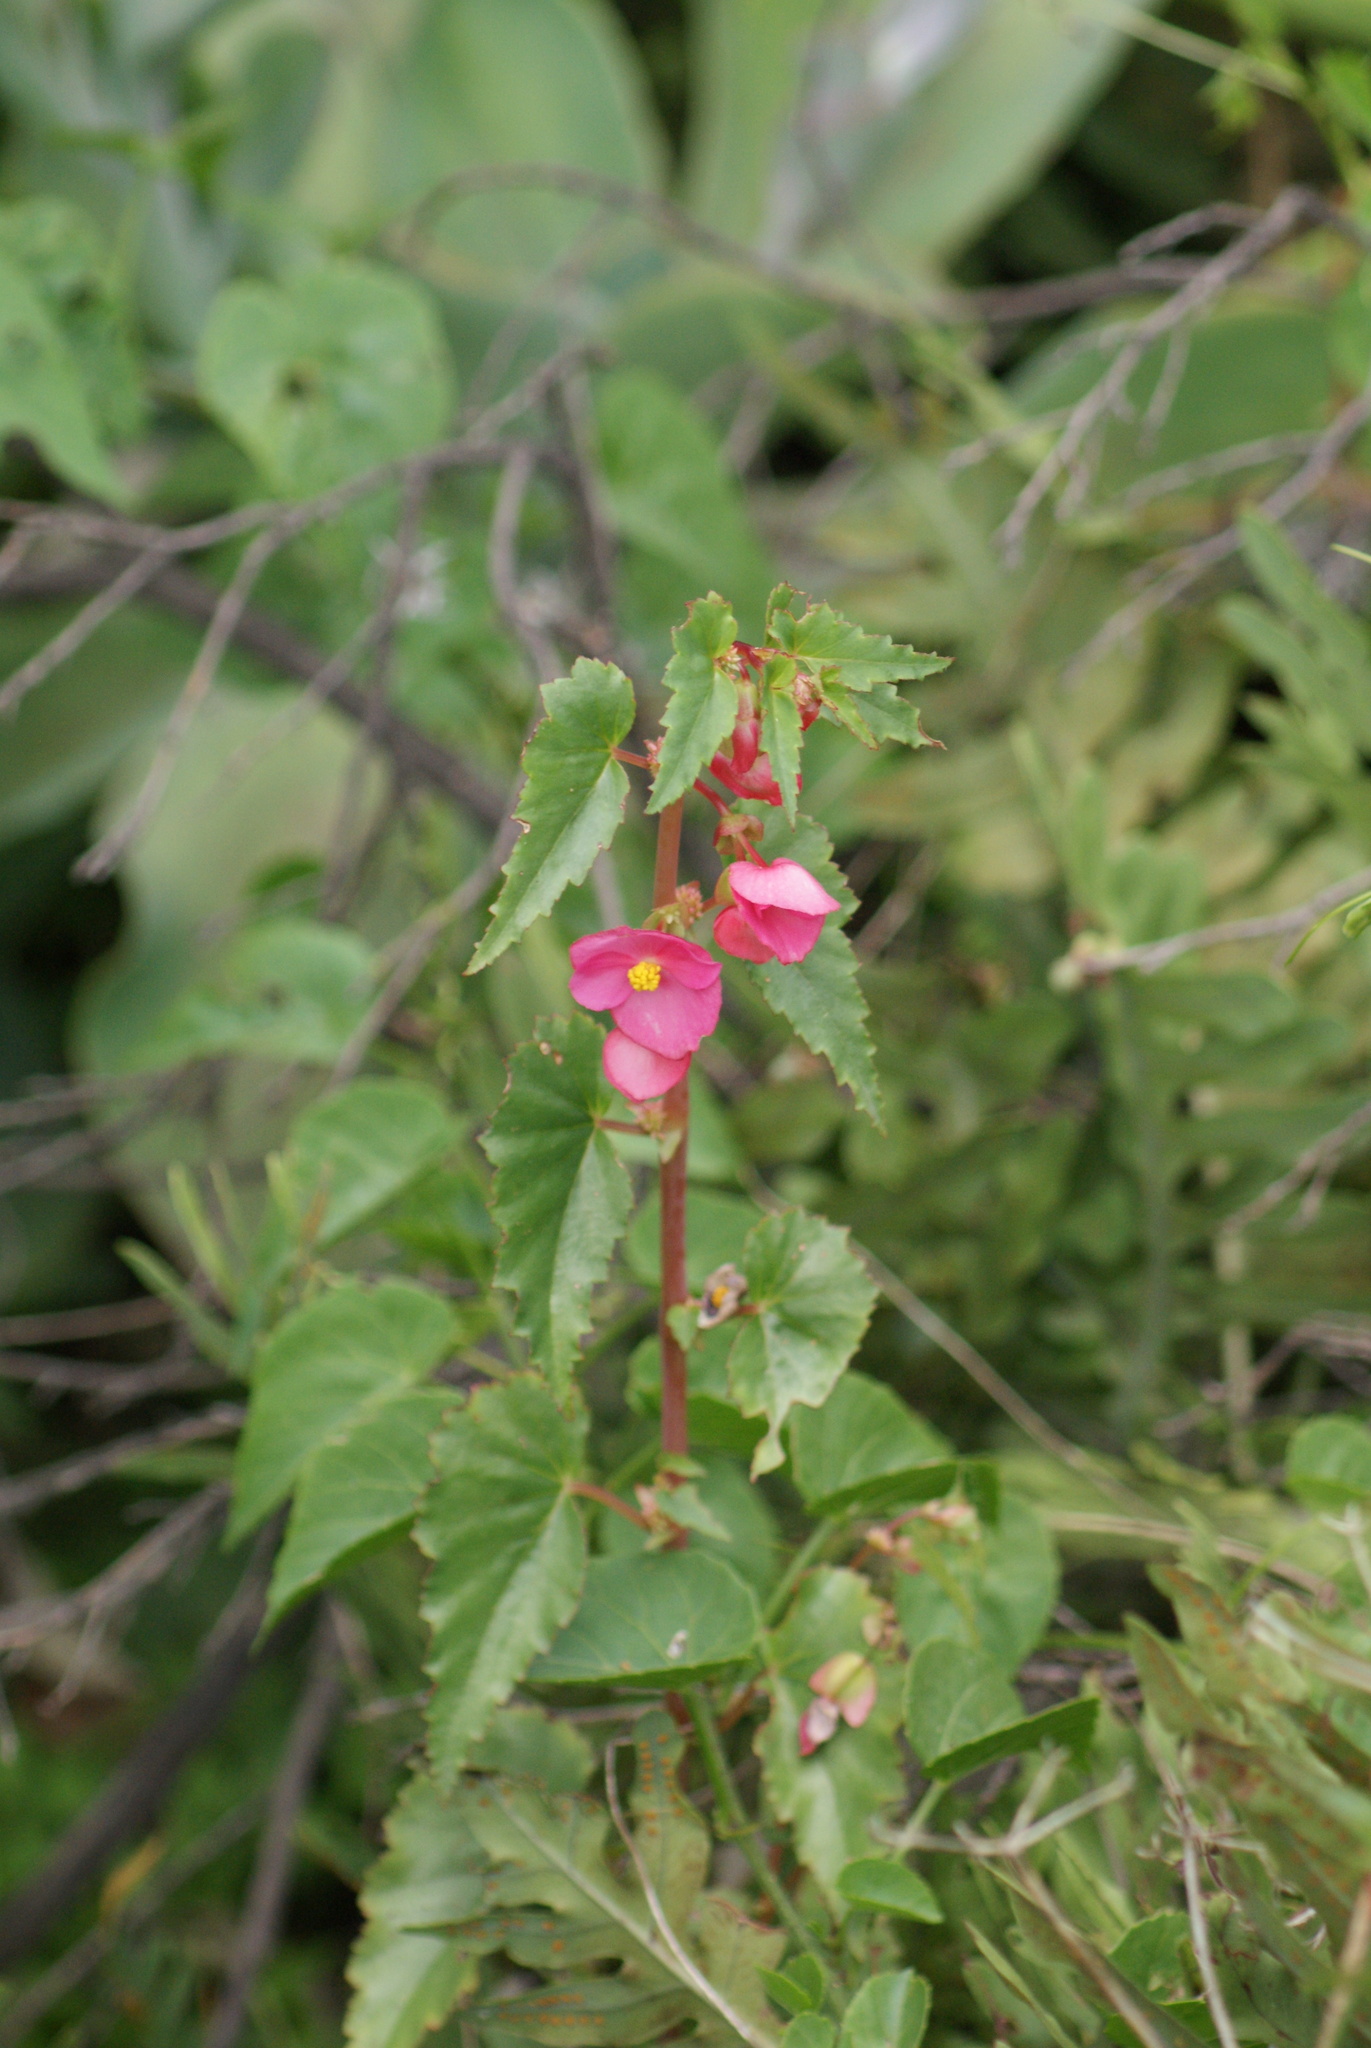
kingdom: Plantae
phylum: Tracheophyta
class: Magnoliopsida
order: Cucurbitales
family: Begoniaceae
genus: Begonia
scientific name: Begonia gracilis
